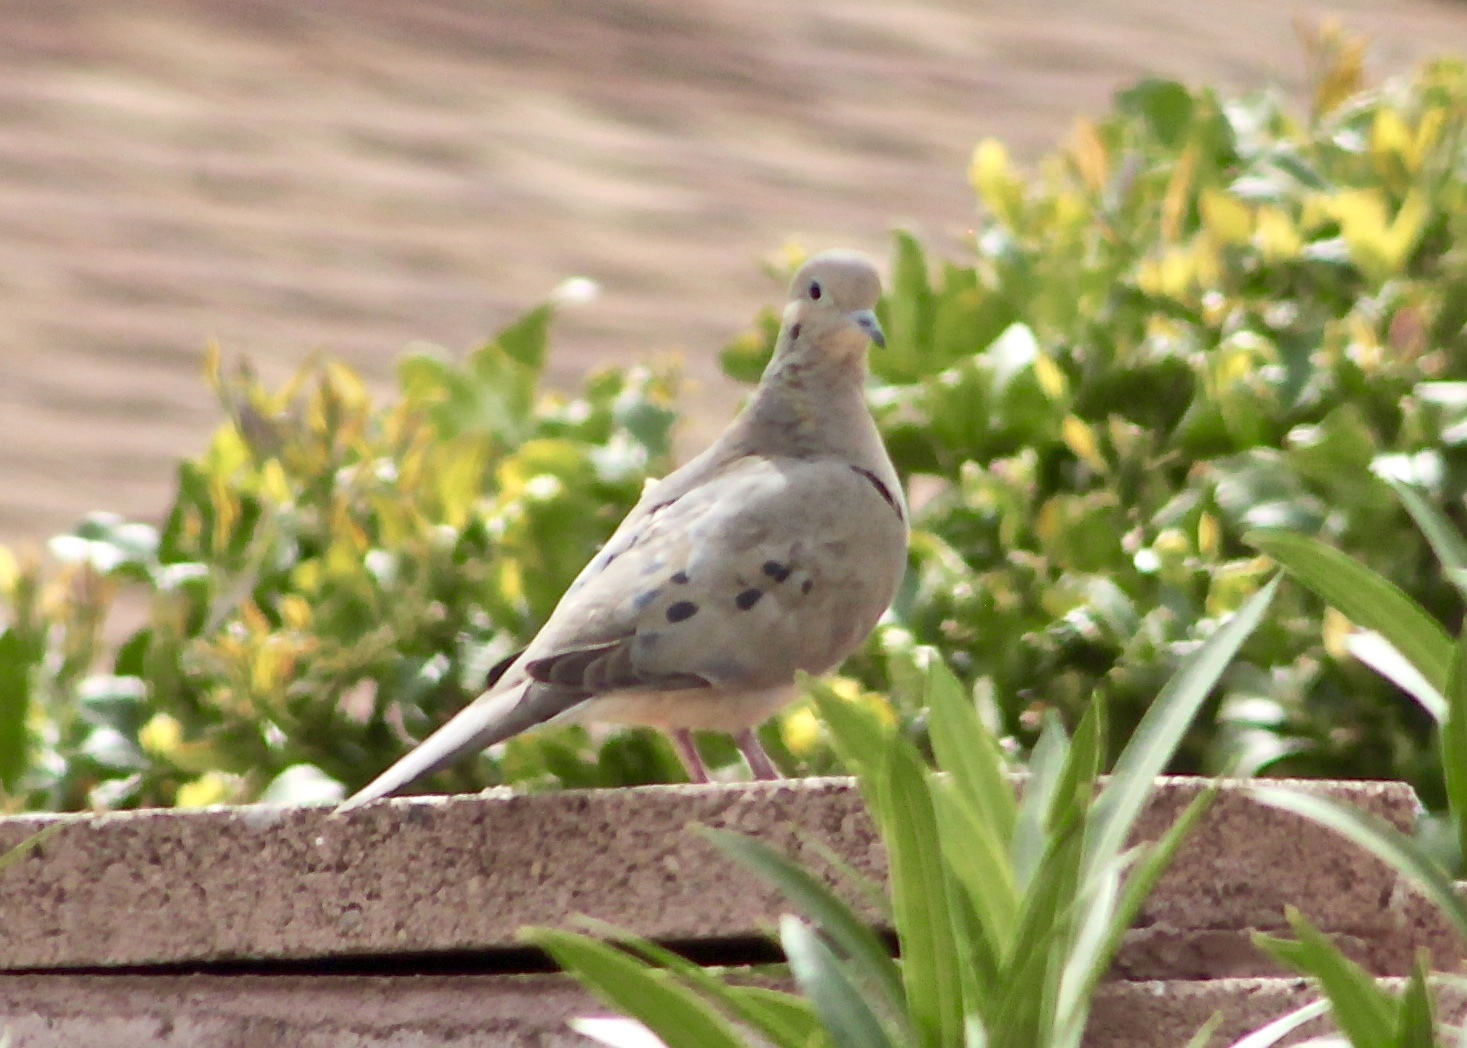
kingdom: Animalia
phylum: Chordata
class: Aves
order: Columbiformes
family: Columbidae
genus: Zenaida
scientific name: Zenaida macroura
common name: Mourning dove
